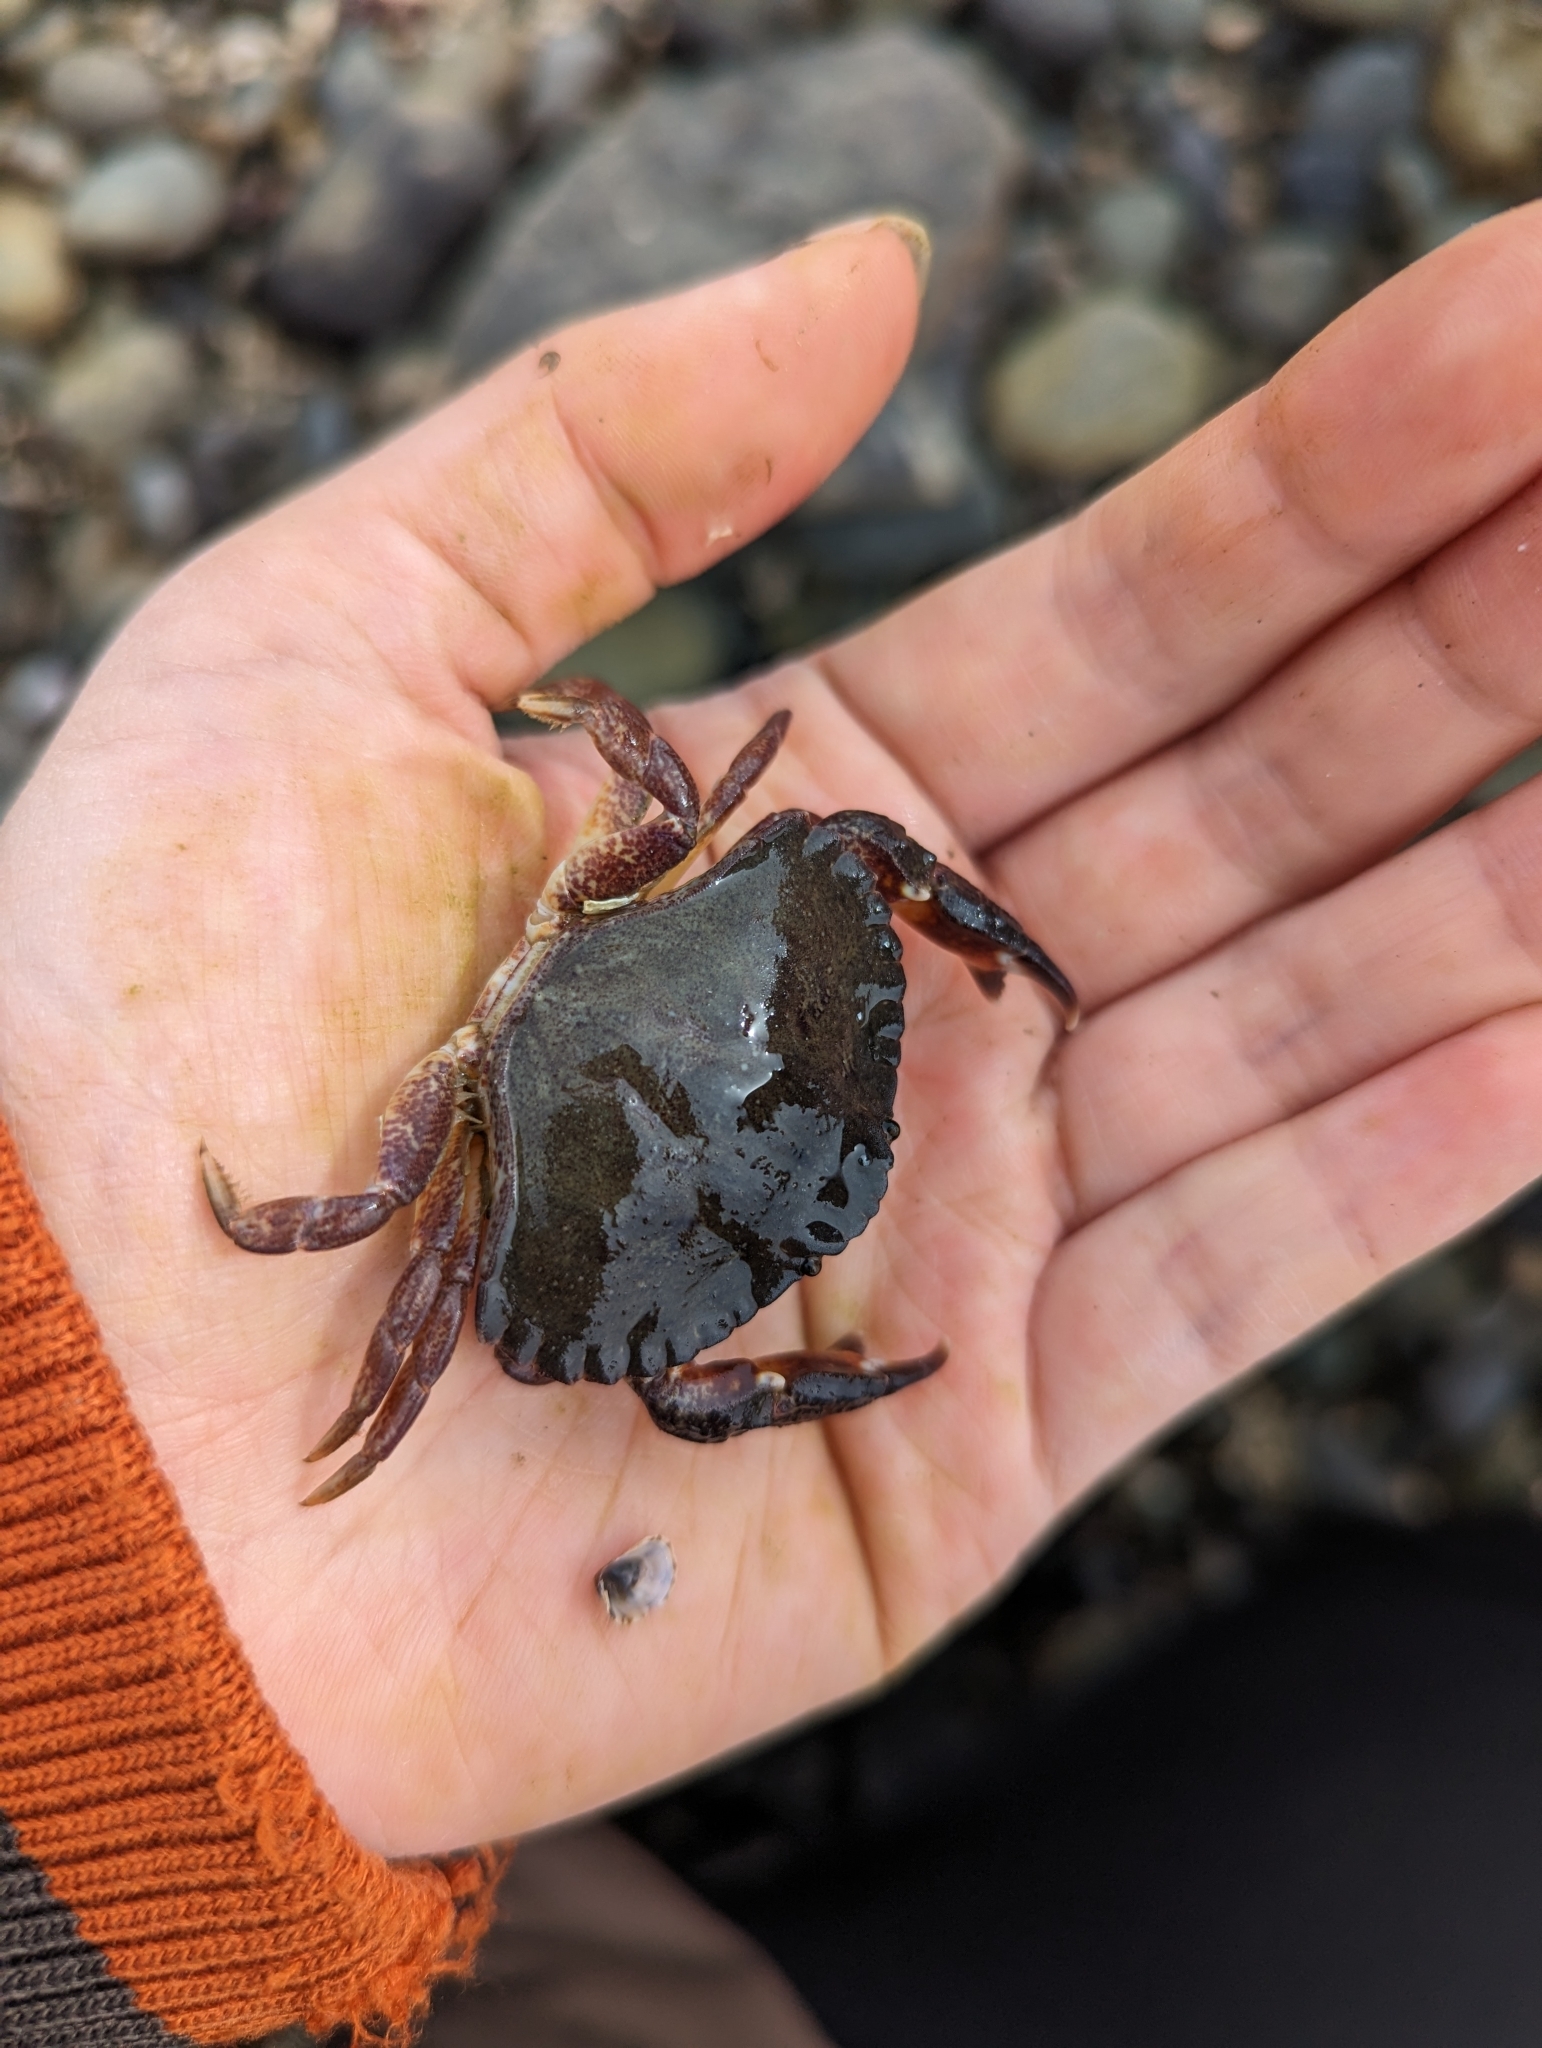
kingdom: Animalia
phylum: Arthropoda
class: Malacostraca
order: Decapoda
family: Cancridae
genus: Cancer
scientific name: Cancer productus
